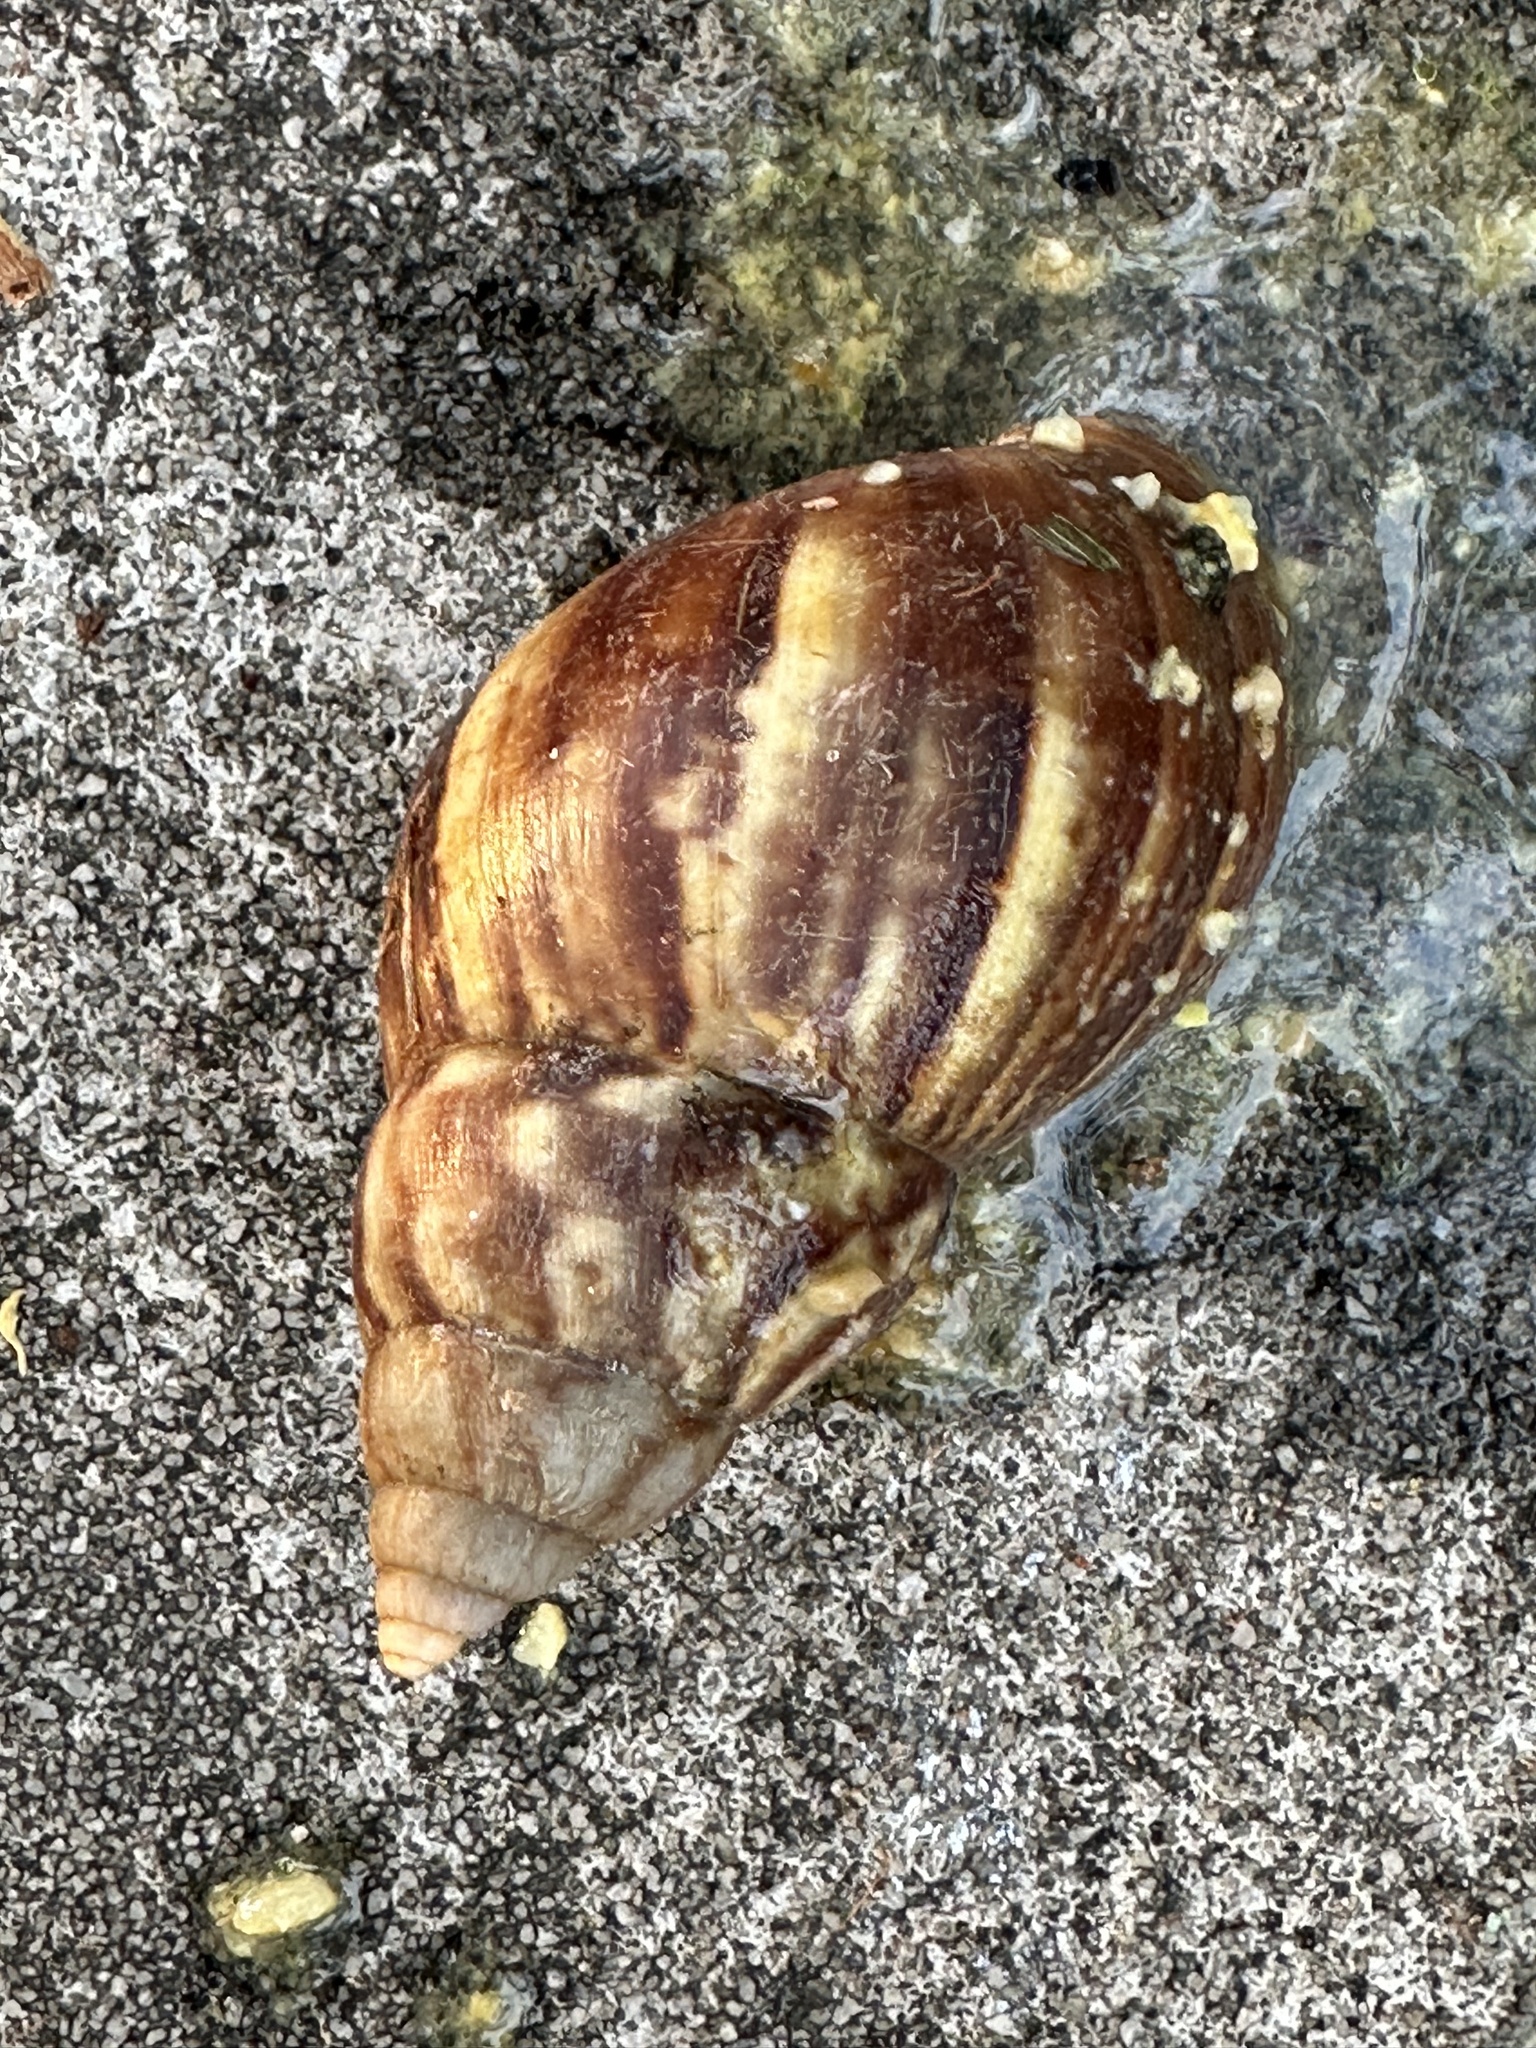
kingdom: Animalia
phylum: Mollusca
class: Gastropoda
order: Stylommatophora
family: Achatinidae
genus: Lissachatina
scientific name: Lissachatina fulica
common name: Giant african snail
